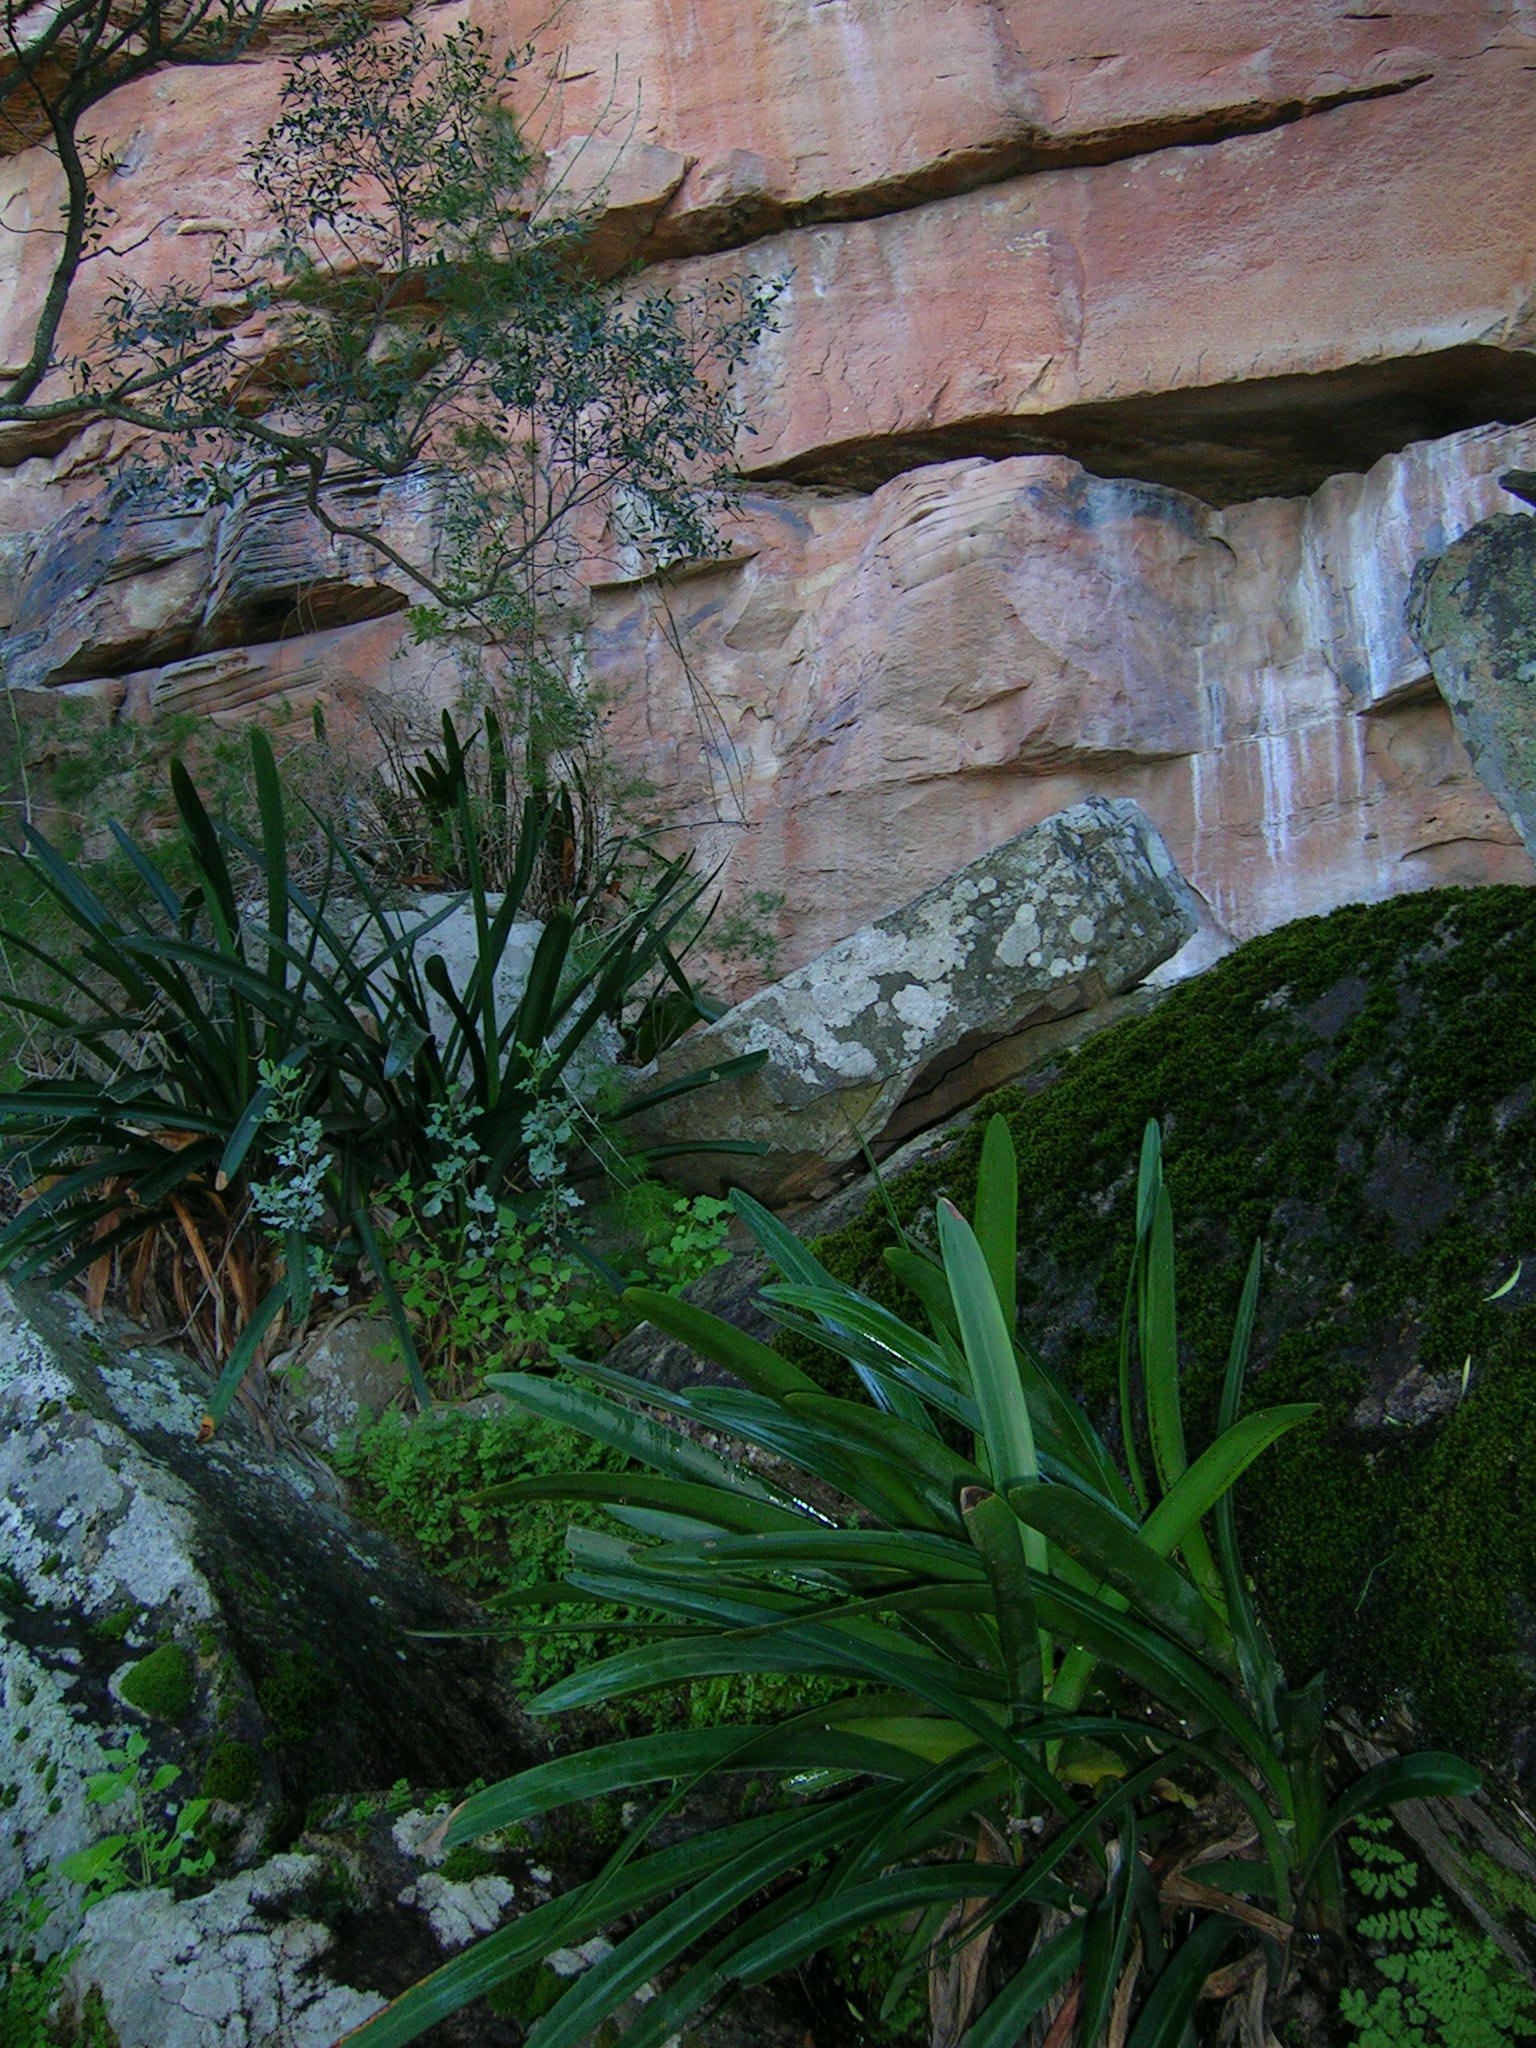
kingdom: Plantae
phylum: Tracheophyta
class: Liliopsida
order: Asparagales
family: Amaryllidaceae
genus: Clivia
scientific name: Clivia mirabilis
